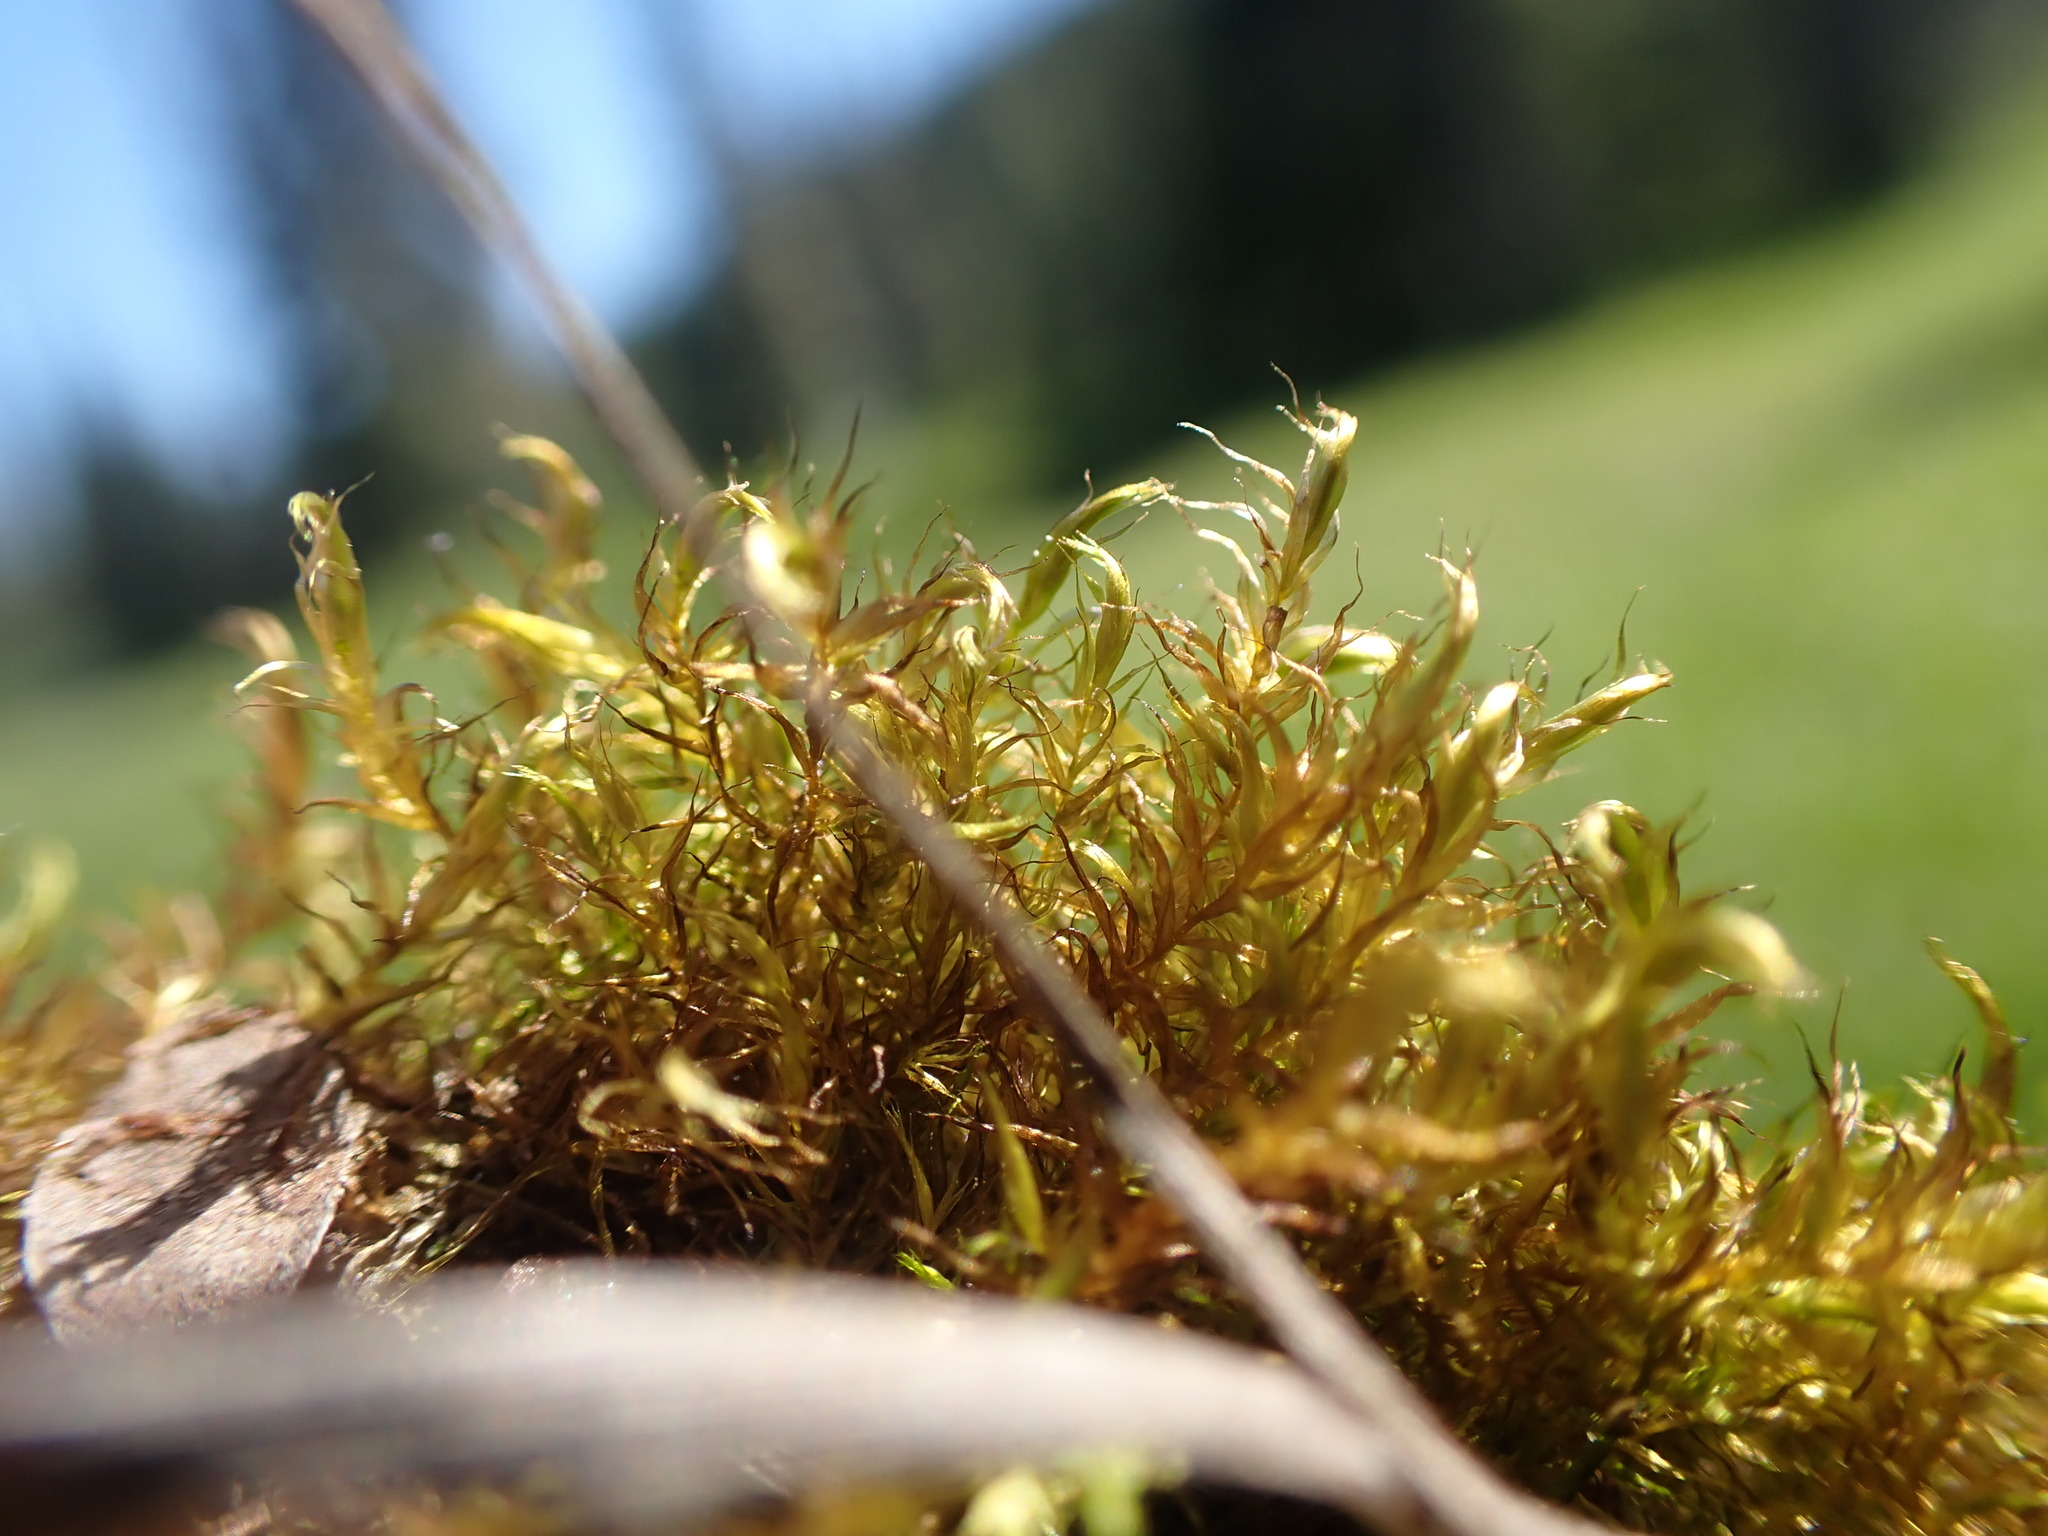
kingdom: Plantae
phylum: Bryophyta
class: Bryopsida
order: Hypnales
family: Amblystegiaceae
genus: Drepanocladus
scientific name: Drepanocladus aduncus
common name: Knieff's hook moss
